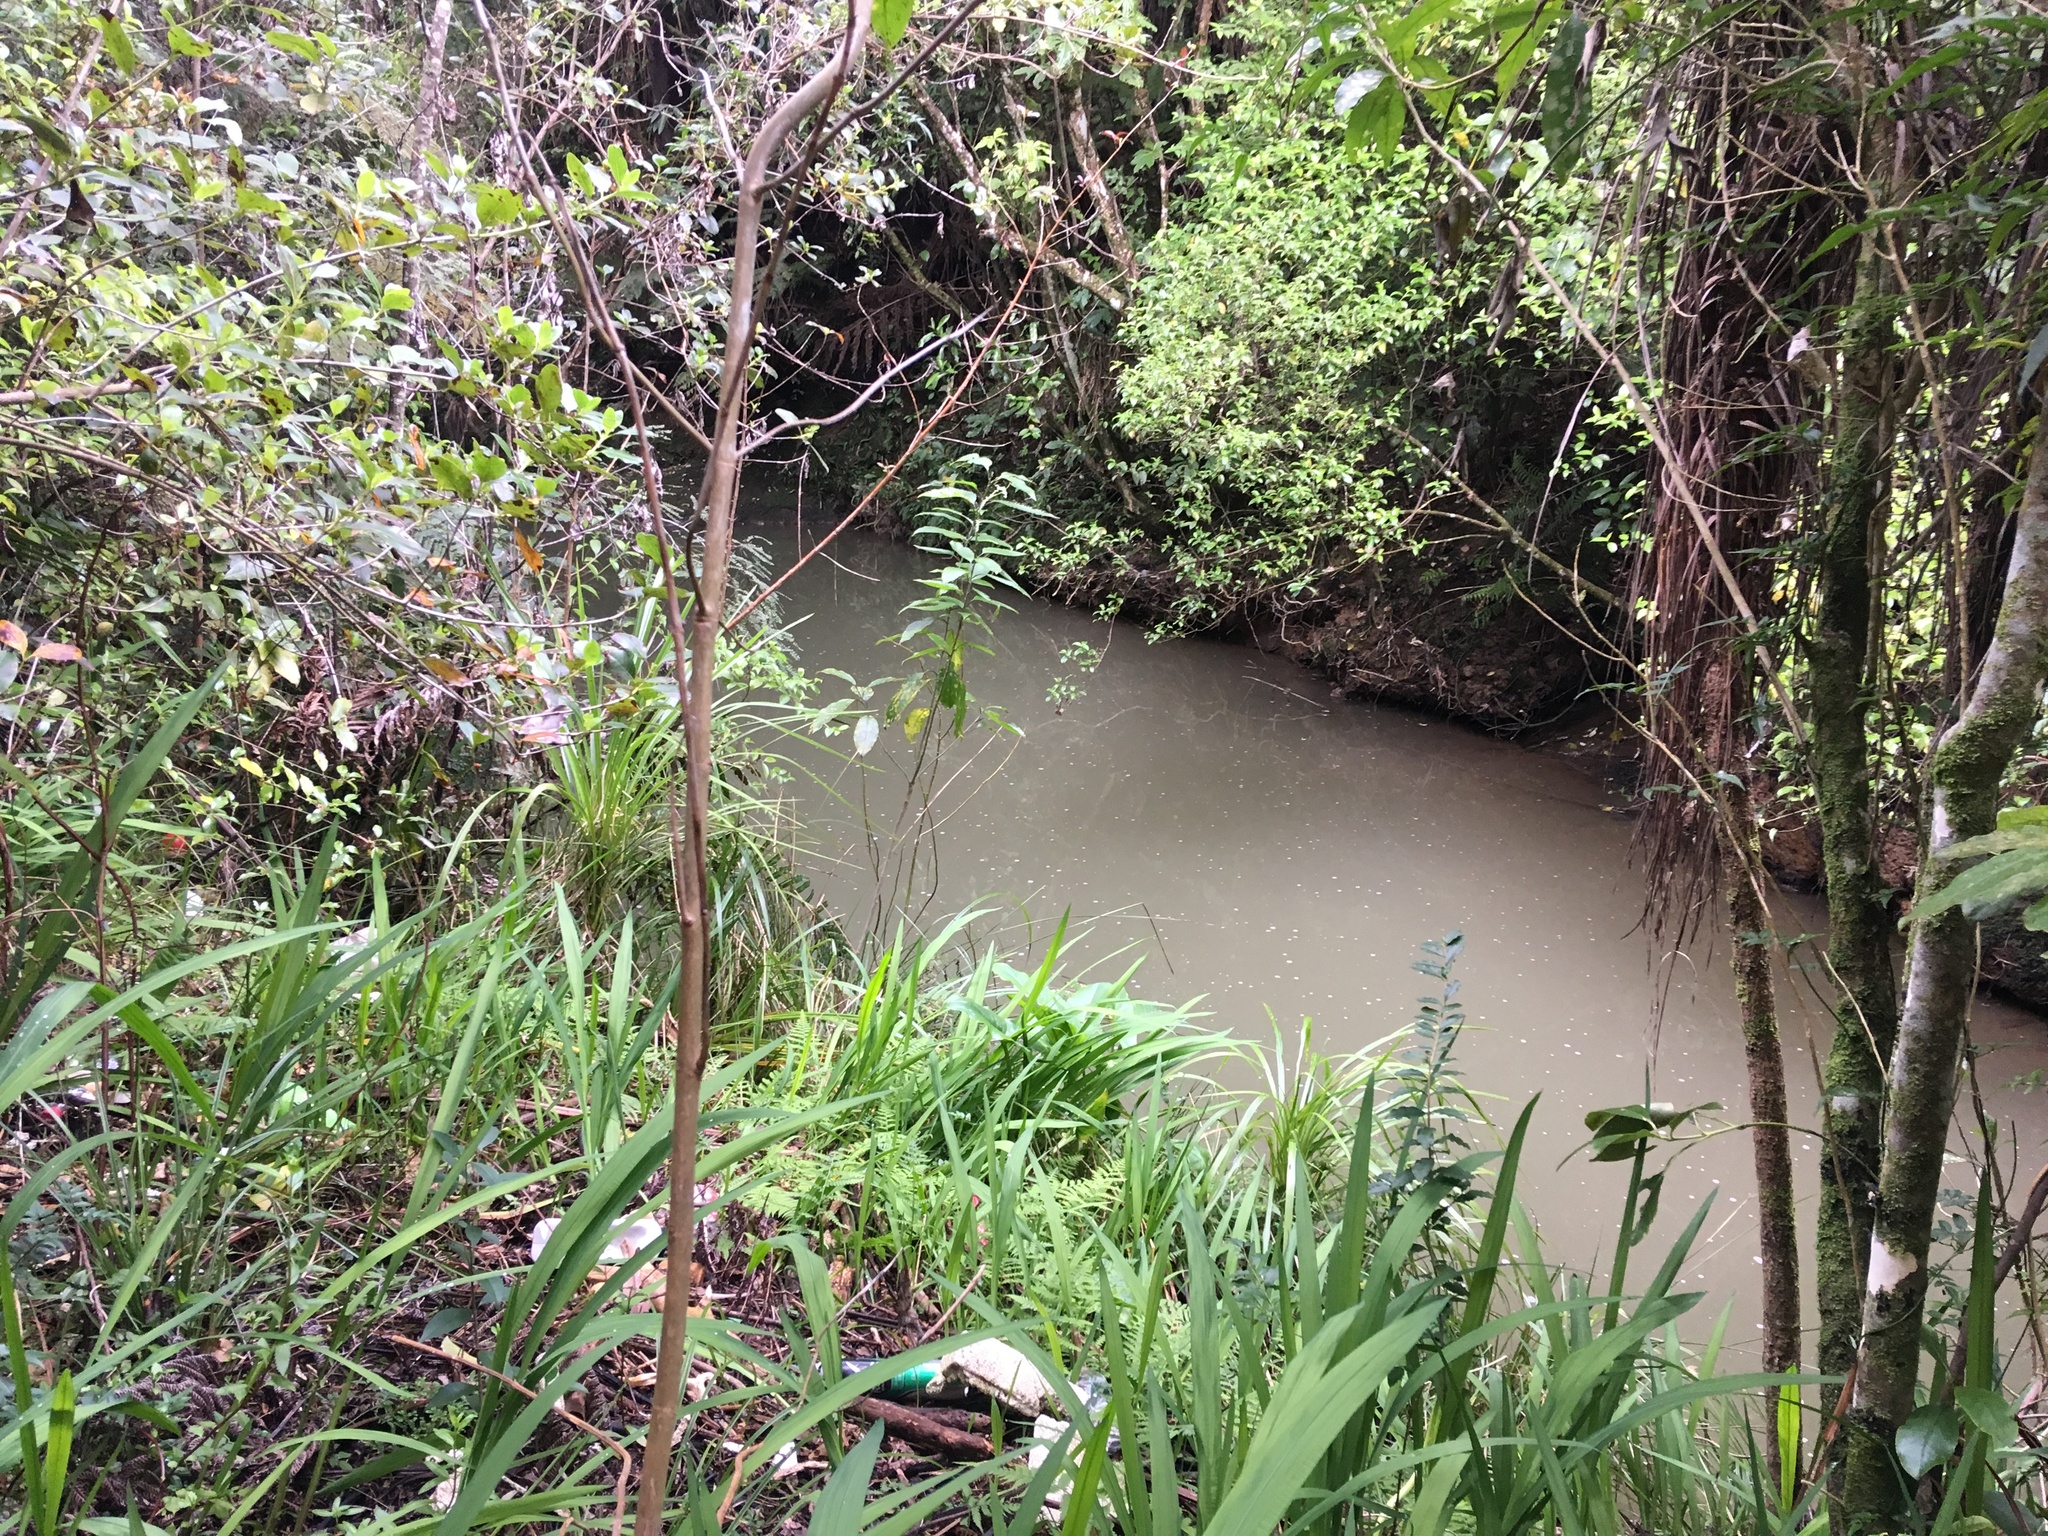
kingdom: Plantae
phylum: Tracheophyta
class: Liliopsida
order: Asparagales
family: Iridaceae
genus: Crocosmia
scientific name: Crocosmia crocosmiiflora
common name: Montbretia
